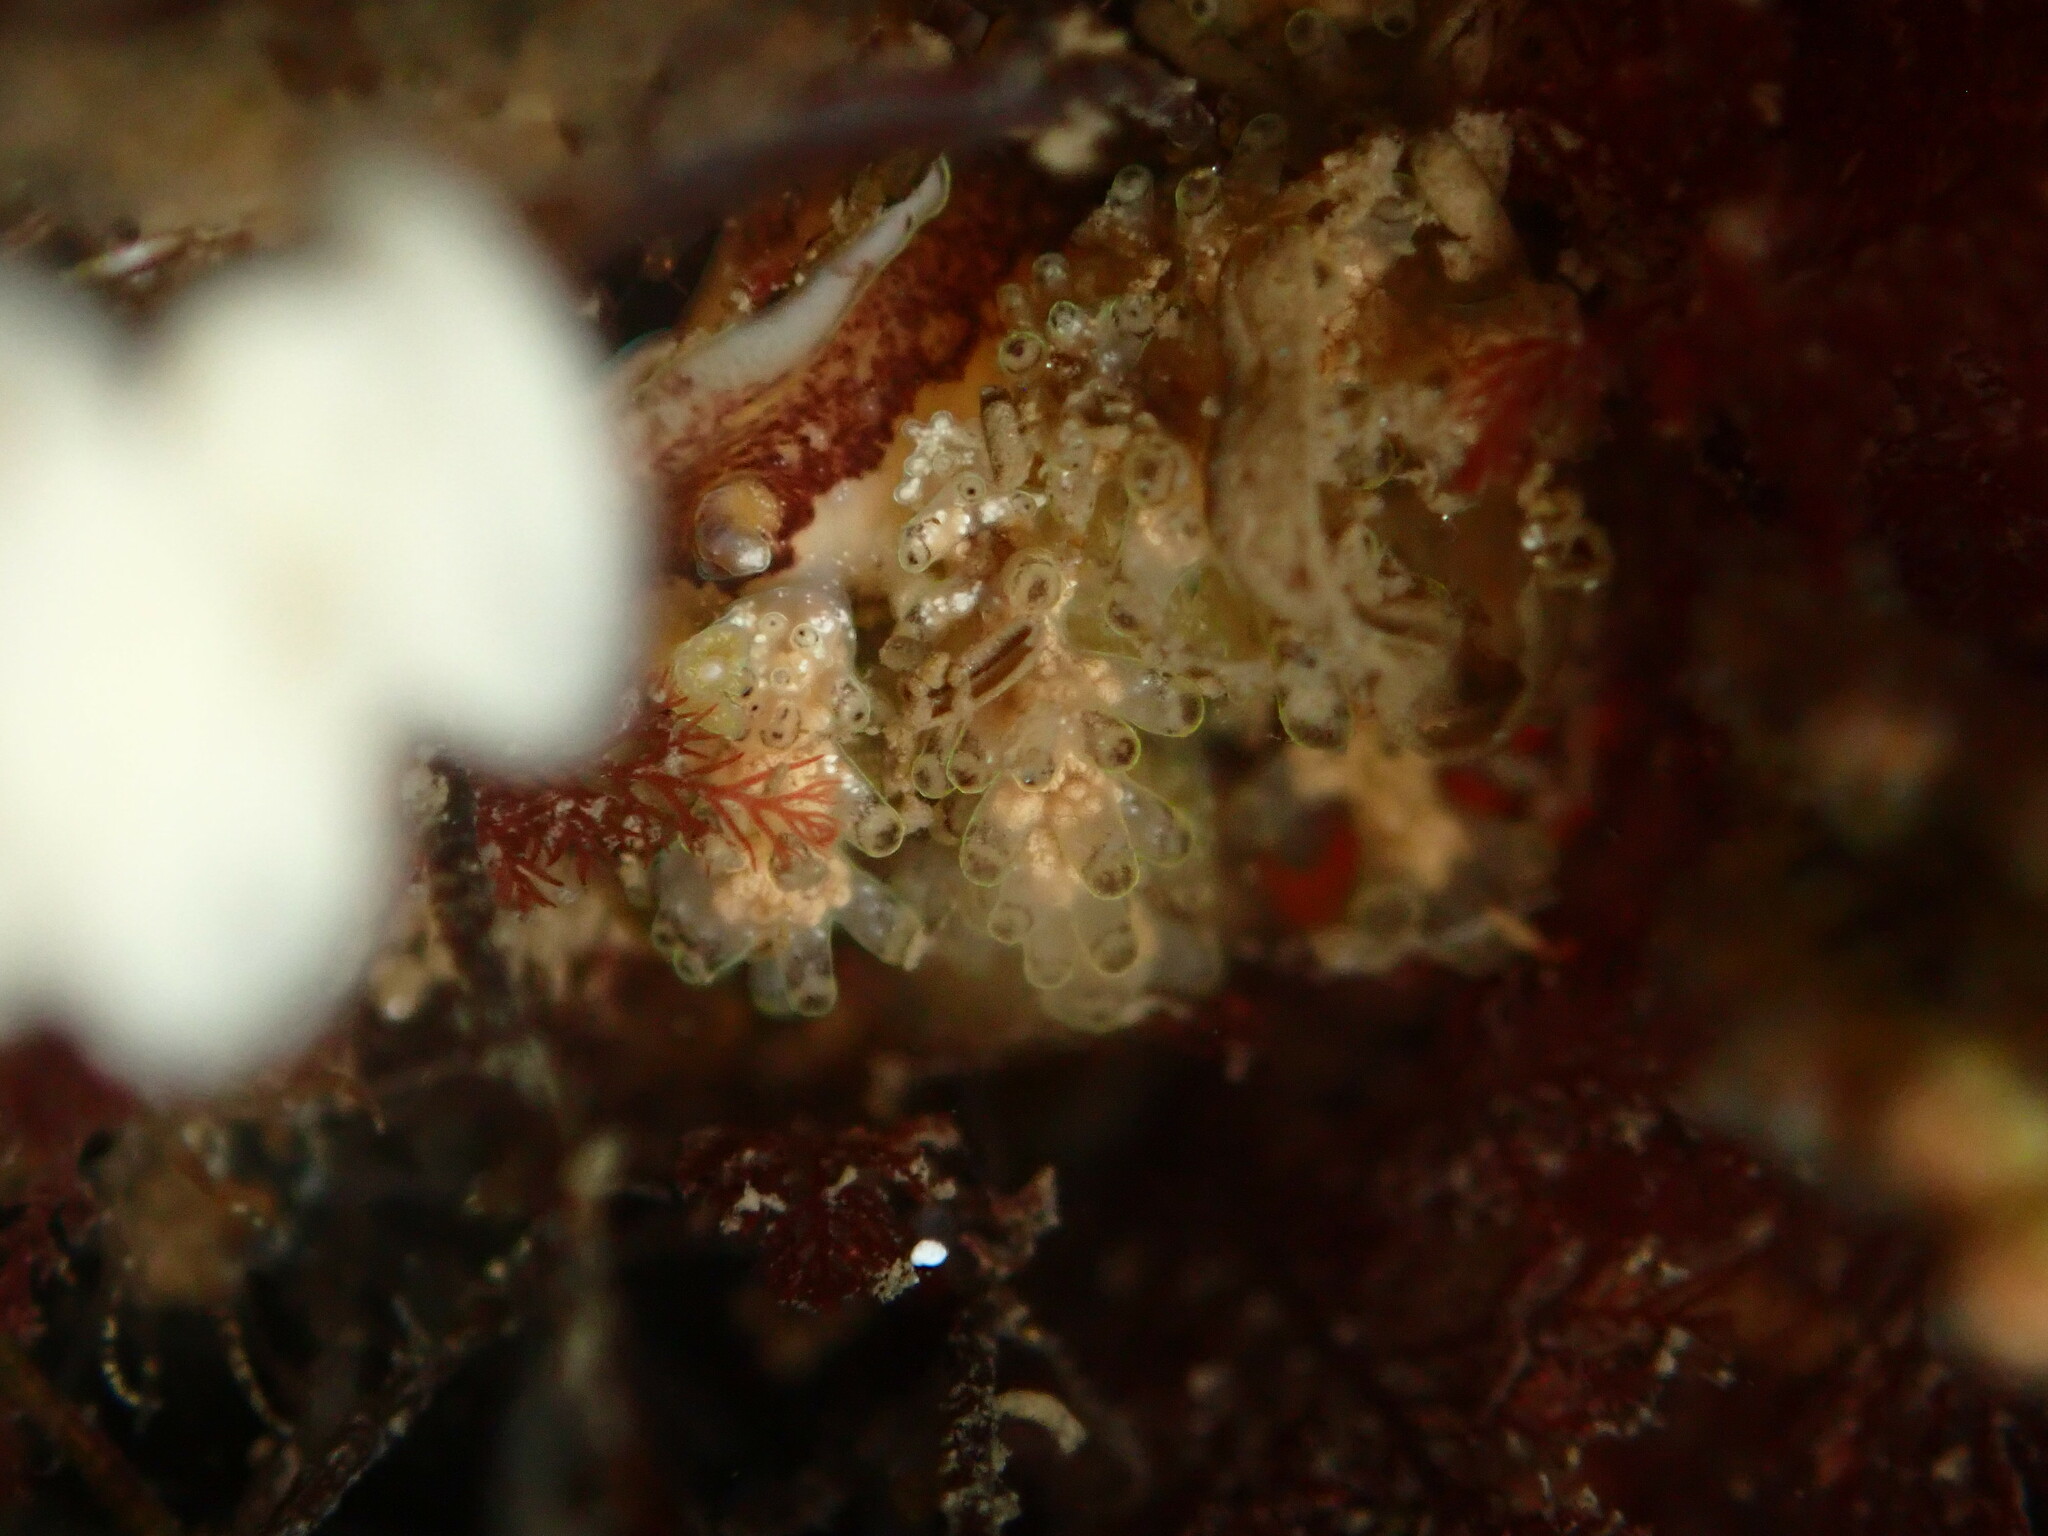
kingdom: Animalia
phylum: Mollusca
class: Gastropoda
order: Nudibranchia
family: Dotidae
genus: Doto
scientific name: Doto lancei
